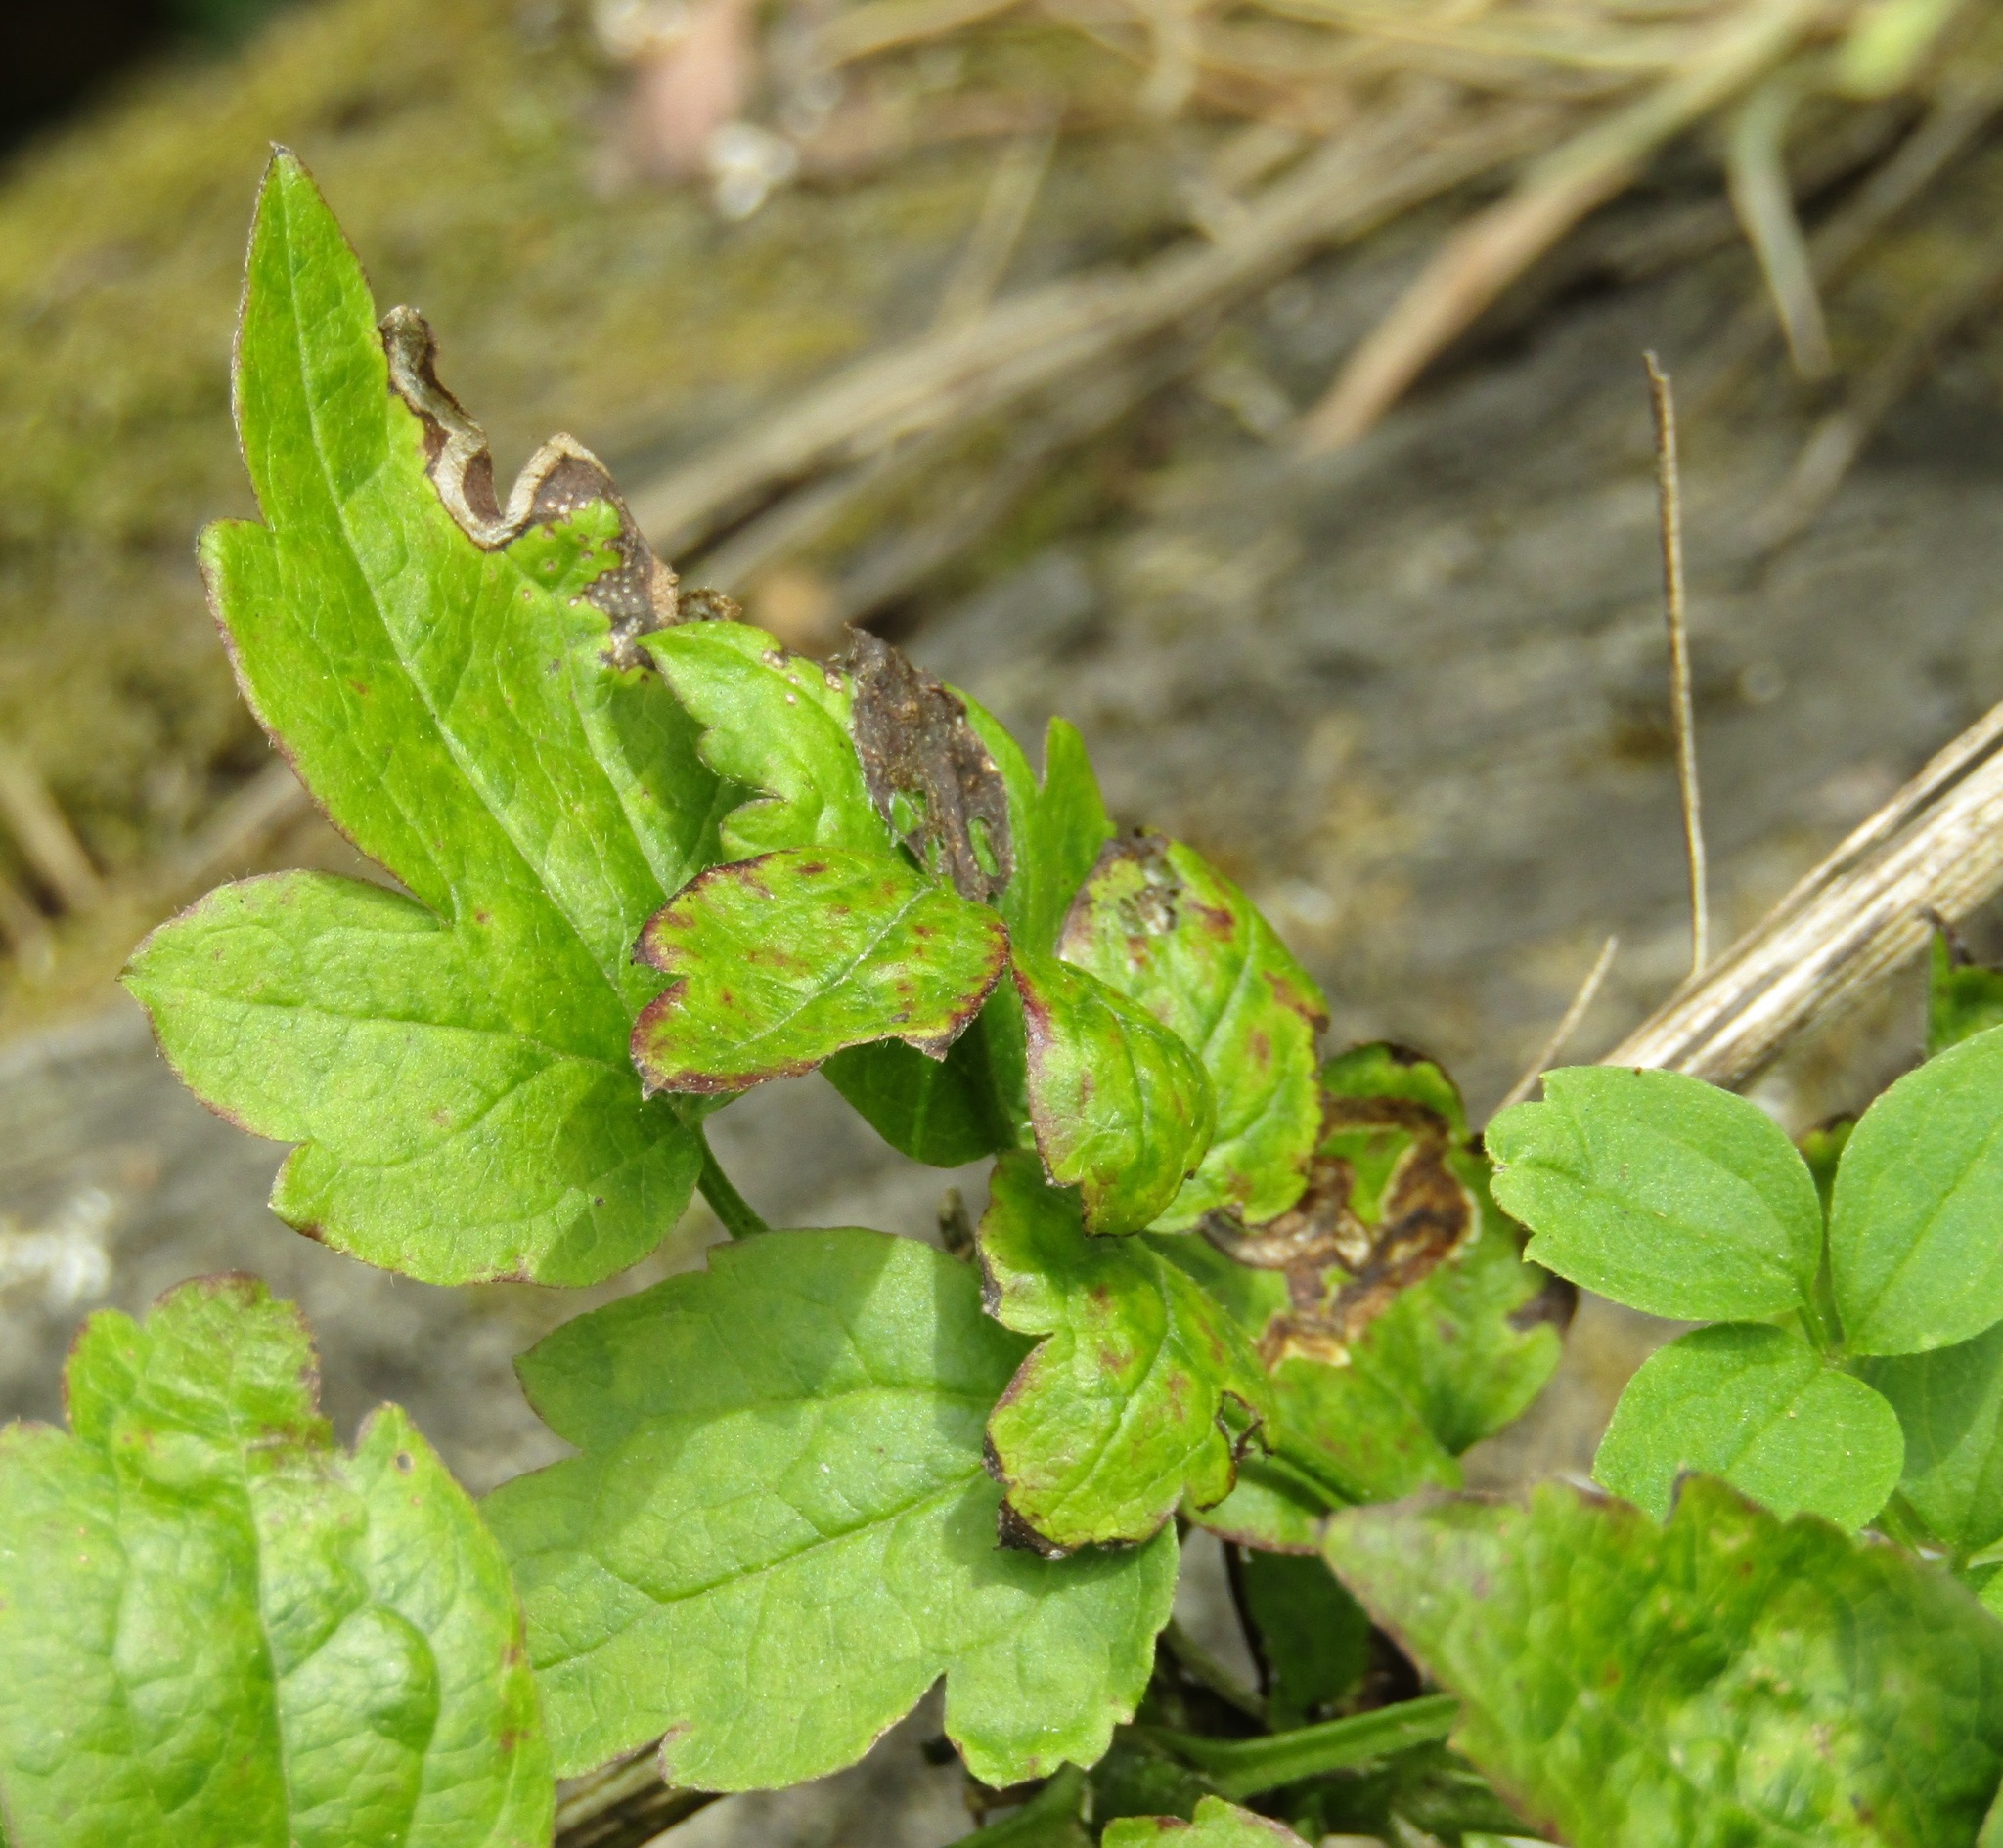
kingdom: Plantae
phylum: Tracheophyta
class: Magnoliopsida
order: Ranunculales
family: Ranunculaceae
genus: Clematis
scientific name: Clematis vitalba
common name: Evergreen clematis
